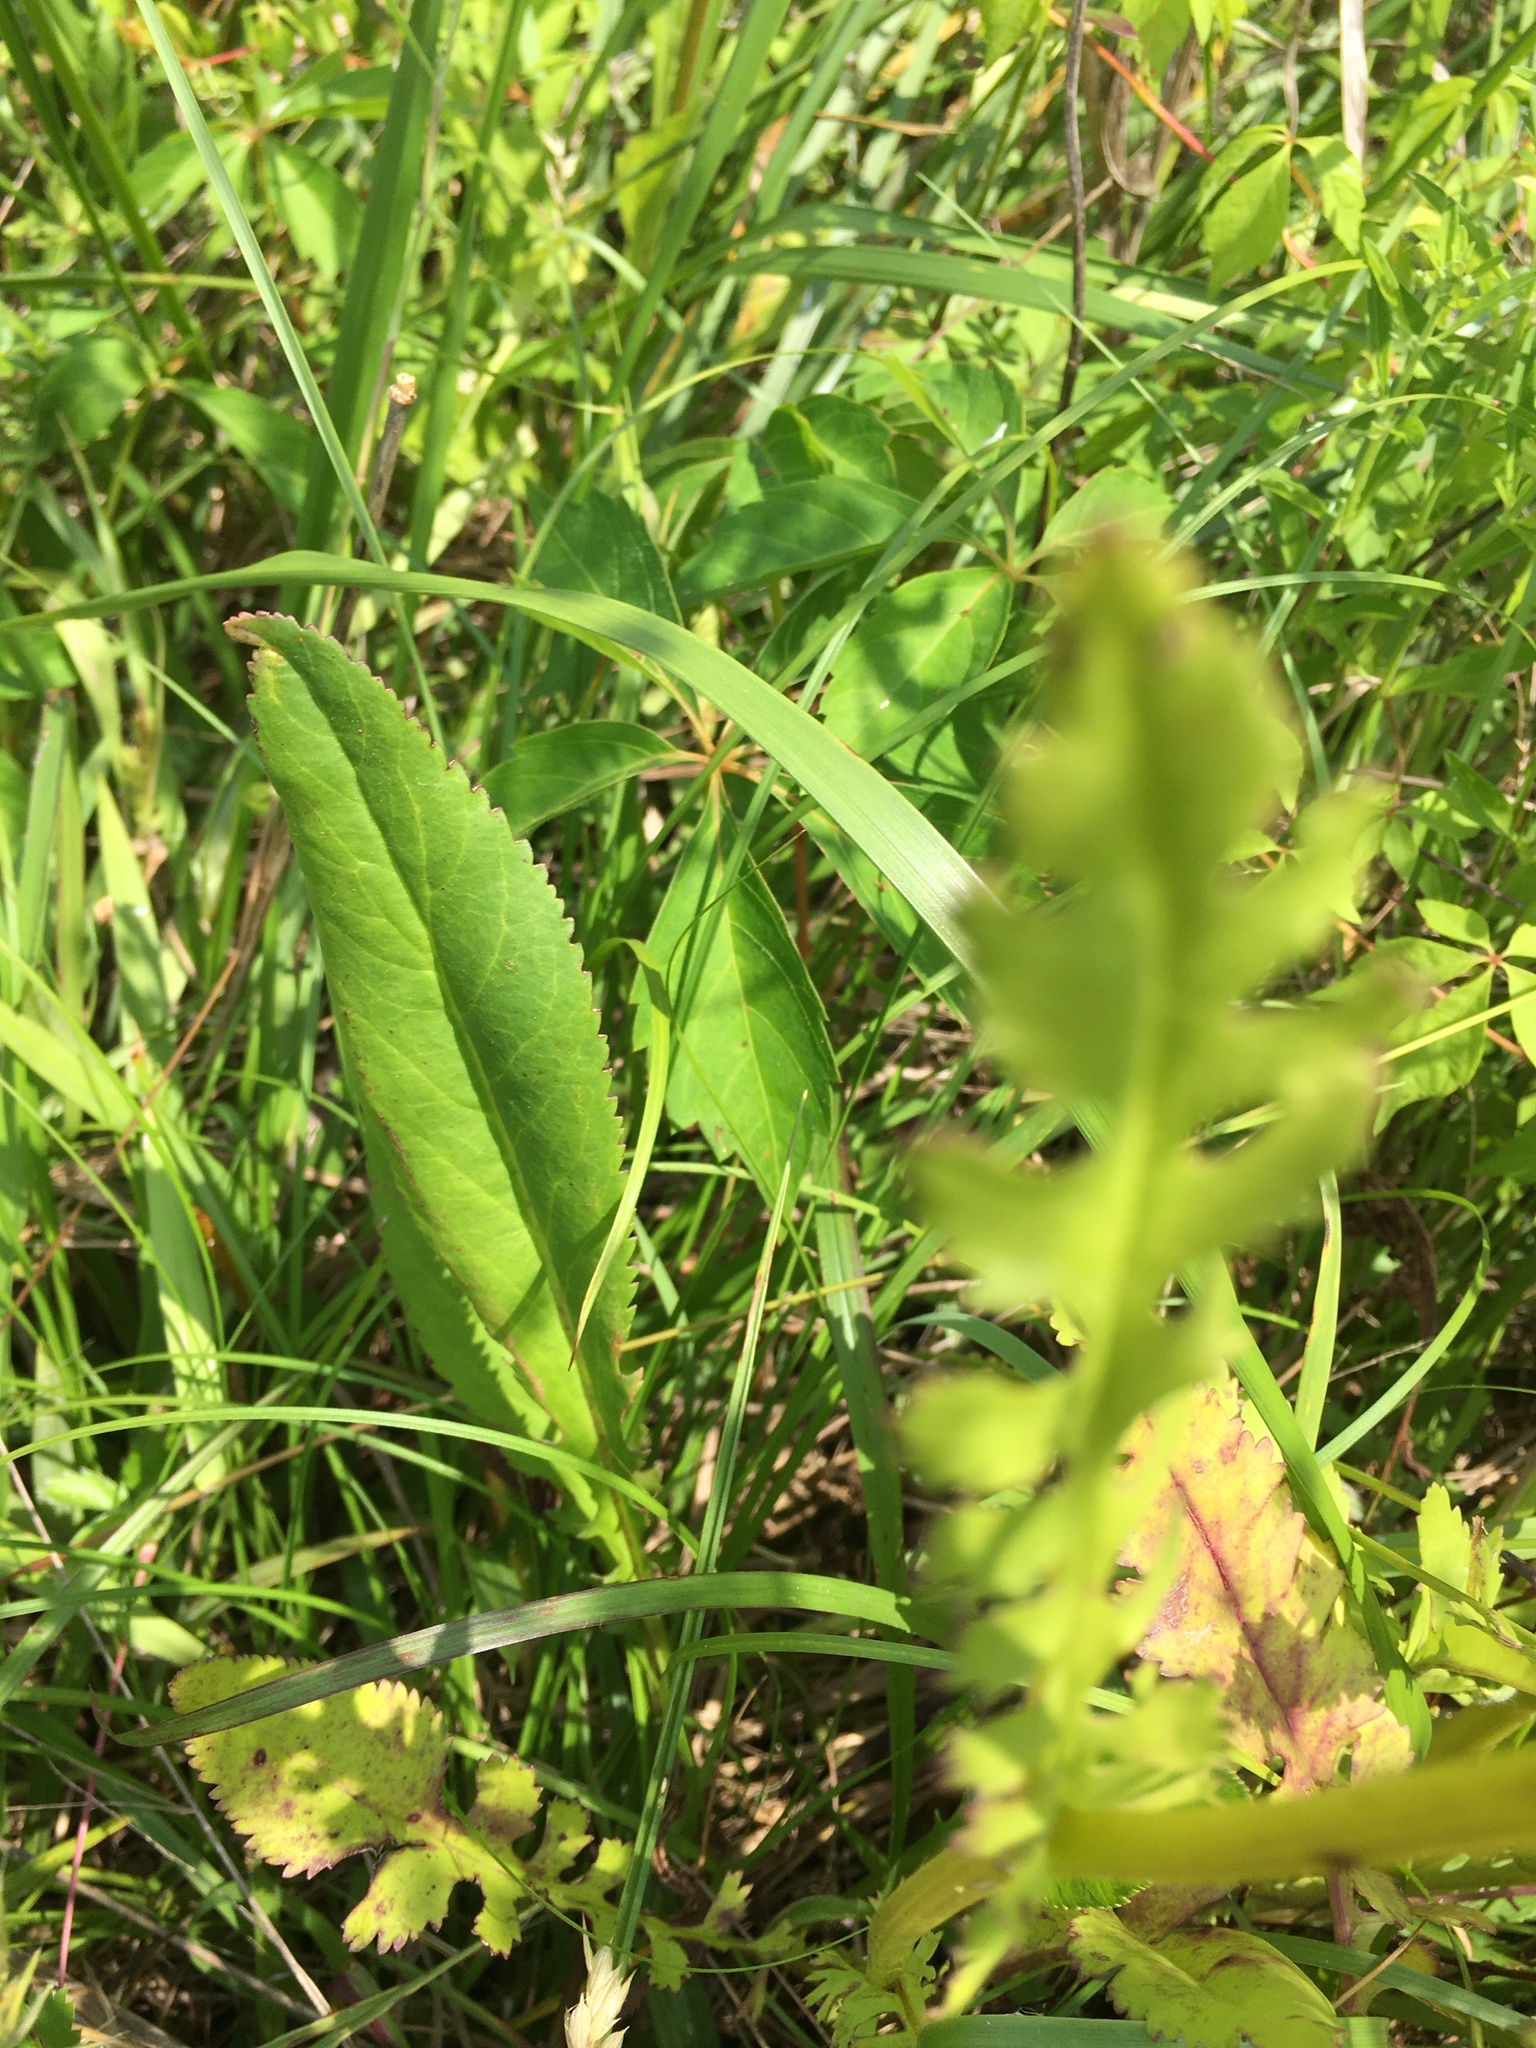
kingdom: Plantae
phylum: Tracheophyta
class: Magnoliopsida
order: Asterales
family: Asteraceae
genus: Packera
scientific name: Packera anonyma
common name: Small ragwort
